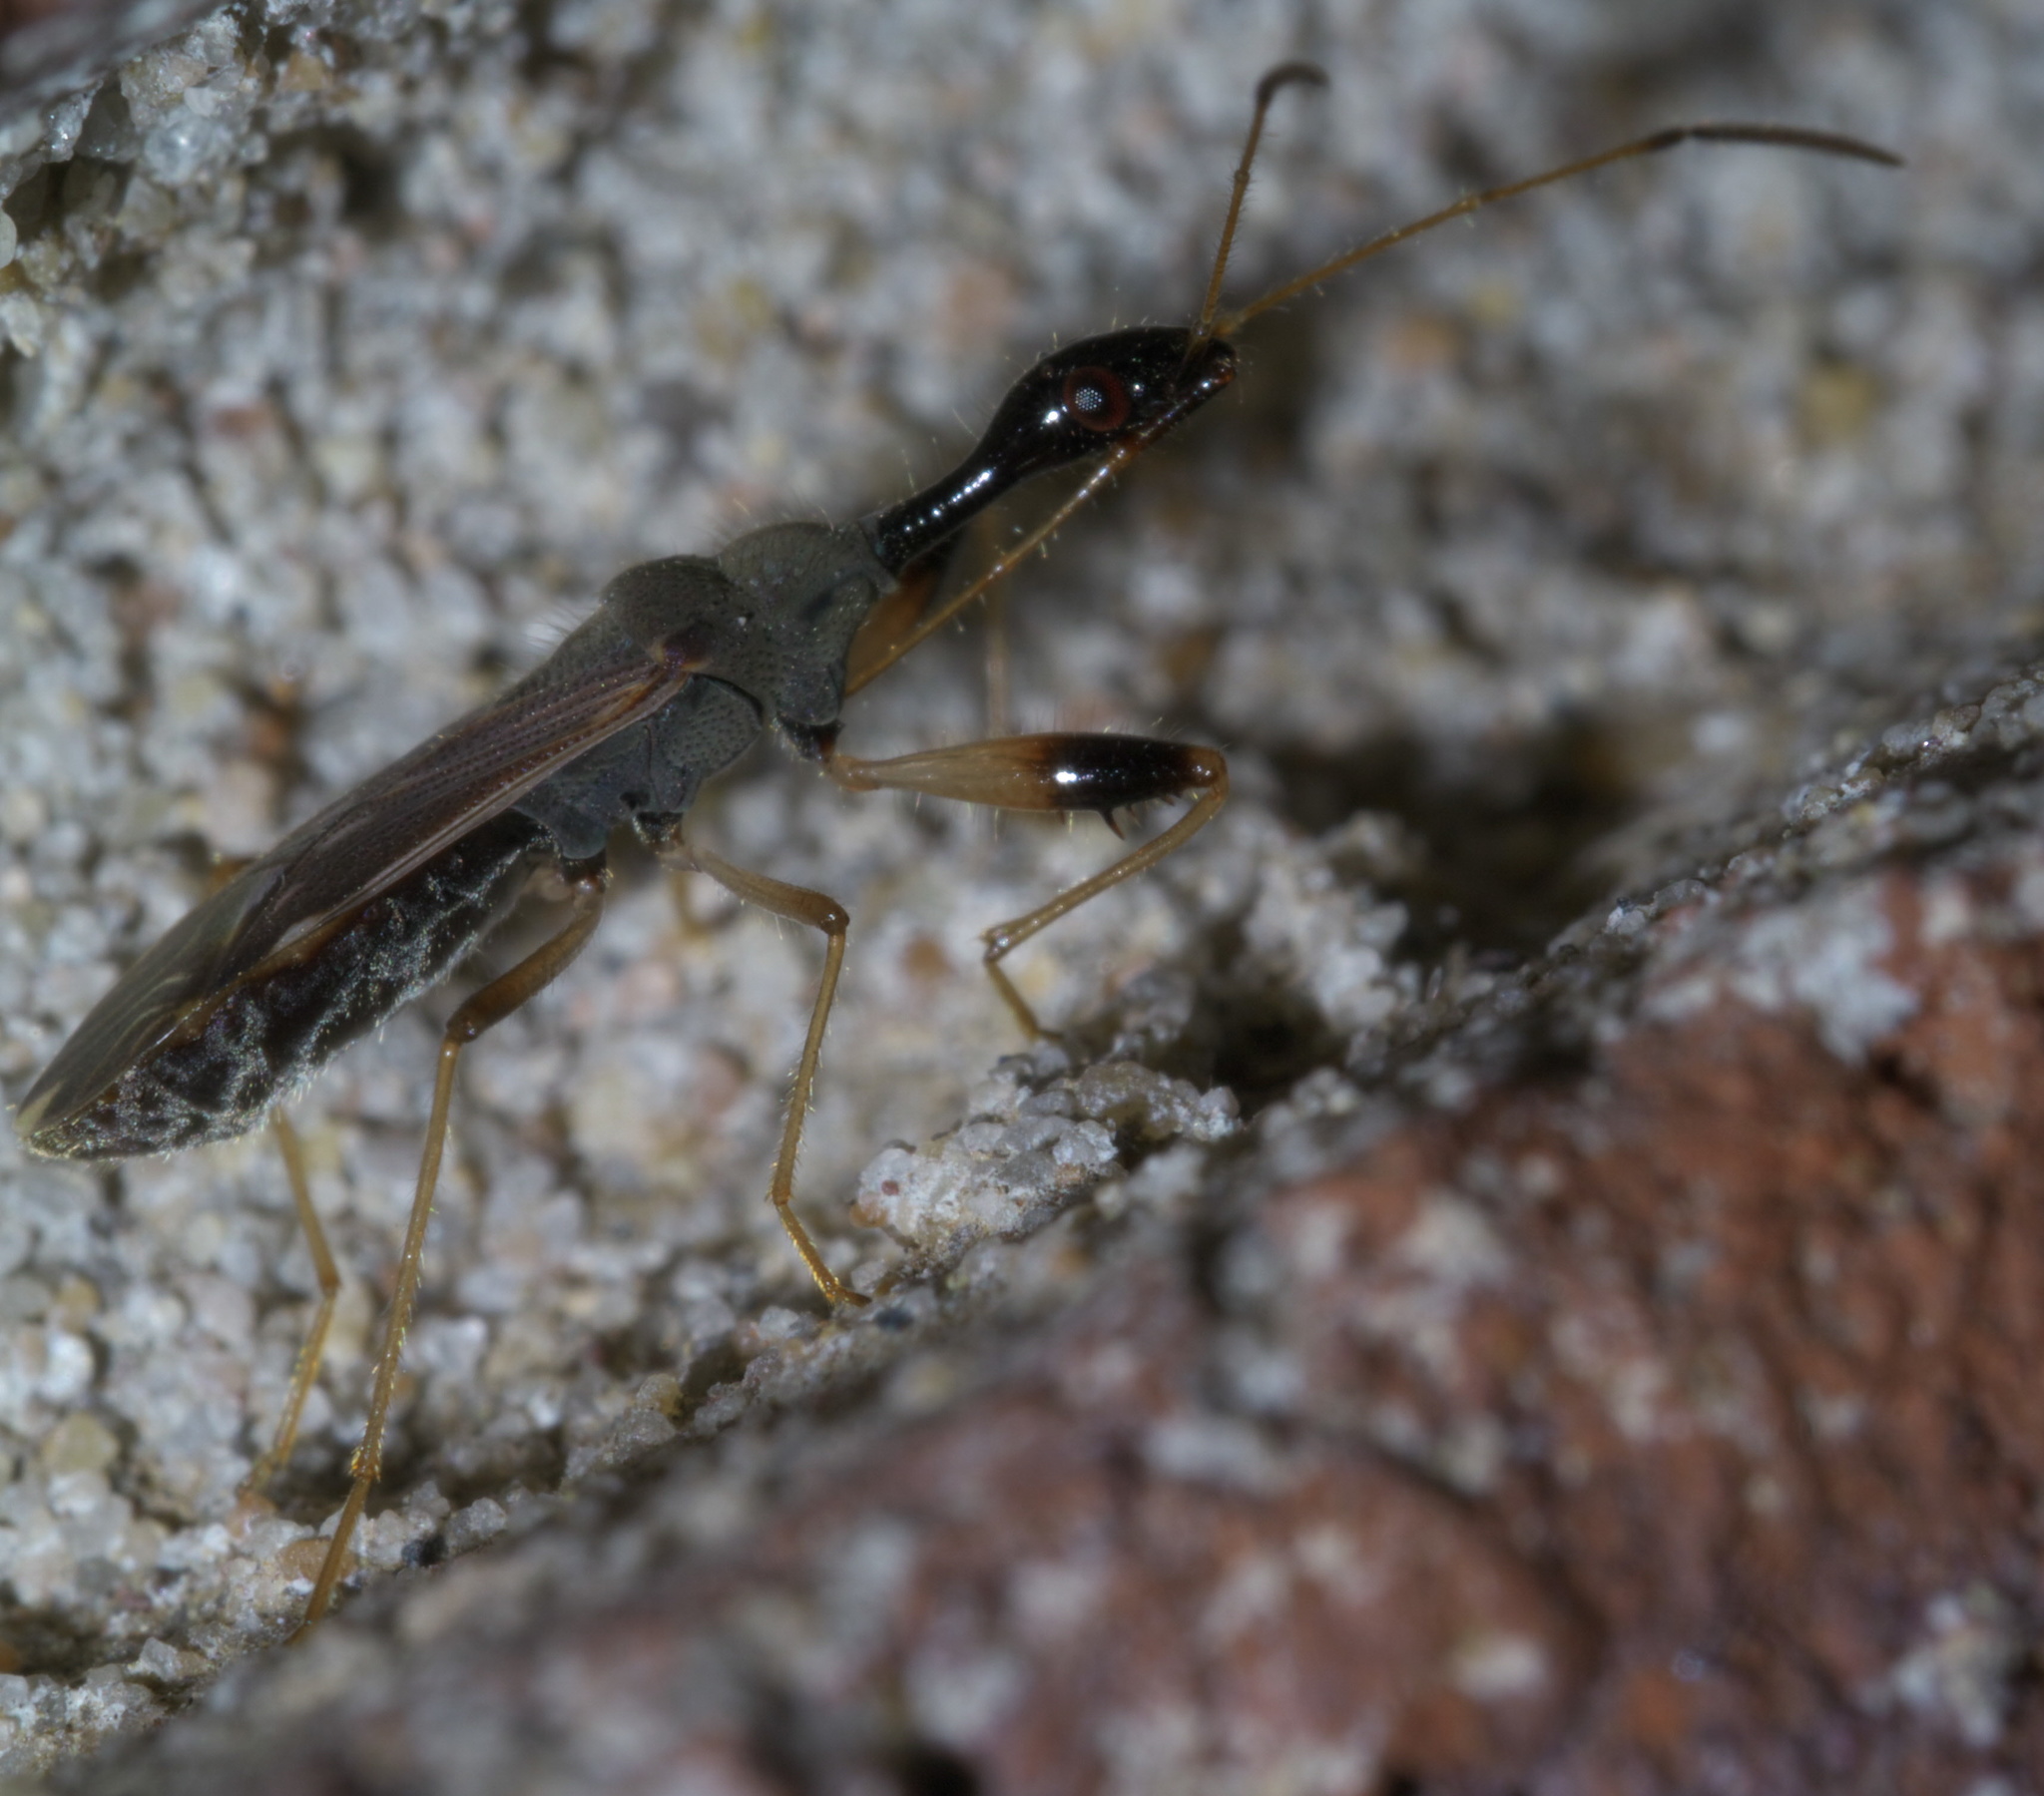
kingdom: Animalia
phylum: Arthropoda
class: Insecta
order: Hemiptera
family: Rhyparochromidae
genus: Myodocha
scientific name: Myodocha serripes
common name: Long-necked seed bug
